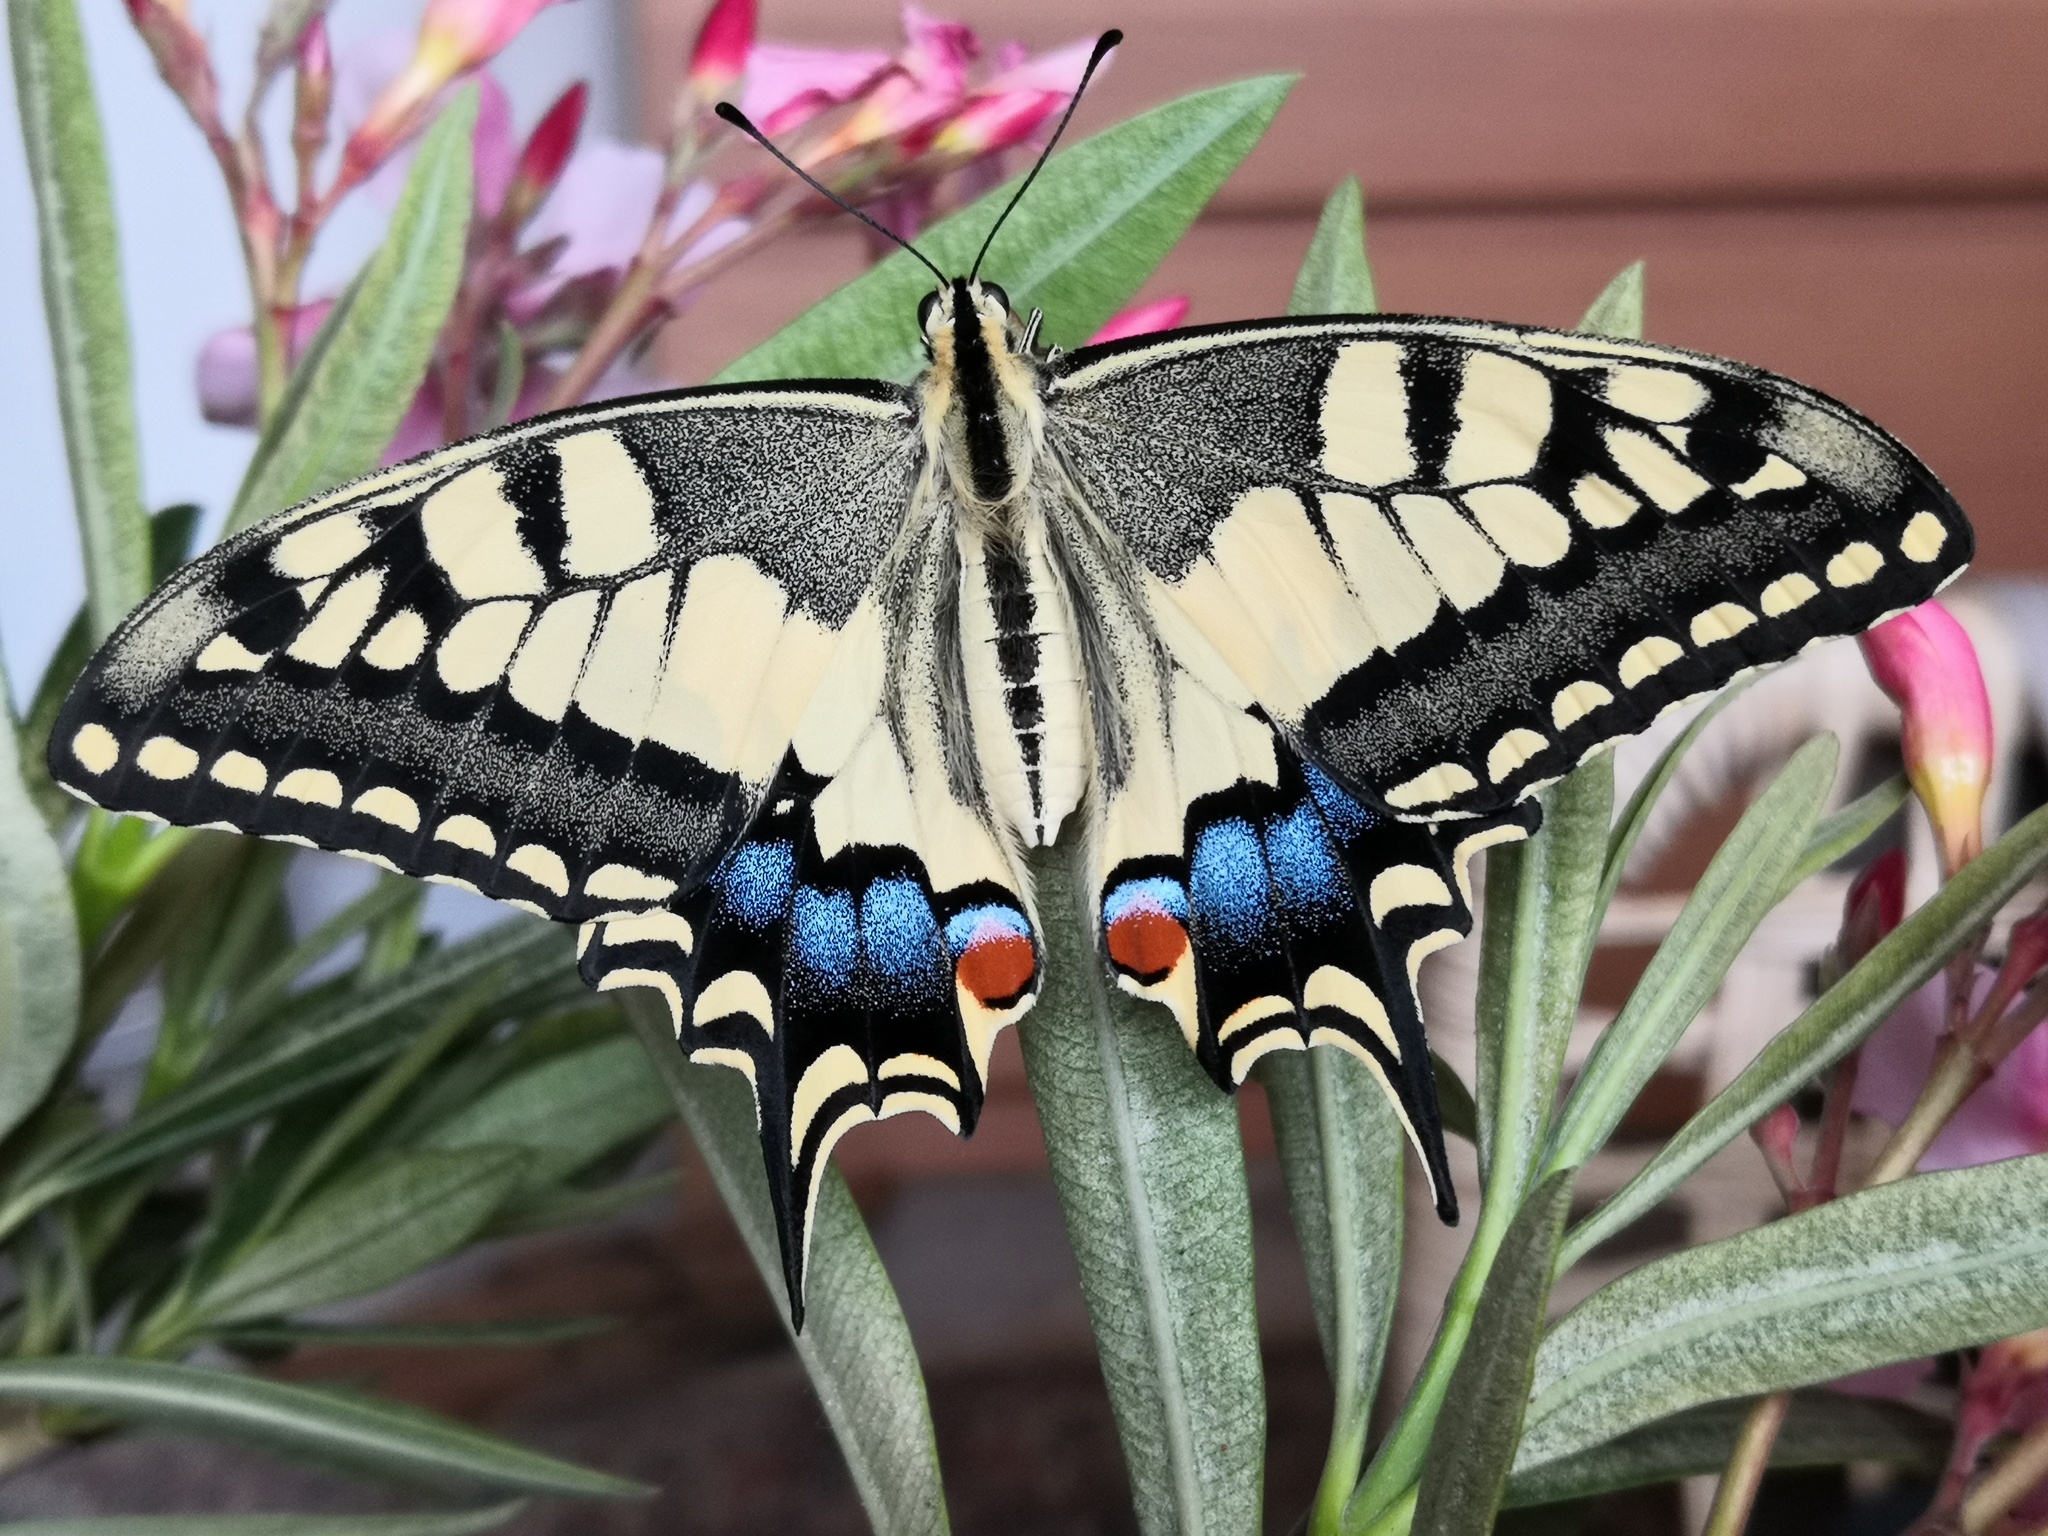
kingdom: Animalia
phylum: Arthropoda
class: Insecta
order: Lepidoptera
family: Papilionidae
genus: Papilio
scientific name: Papilio machaon
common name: Swallowtail
